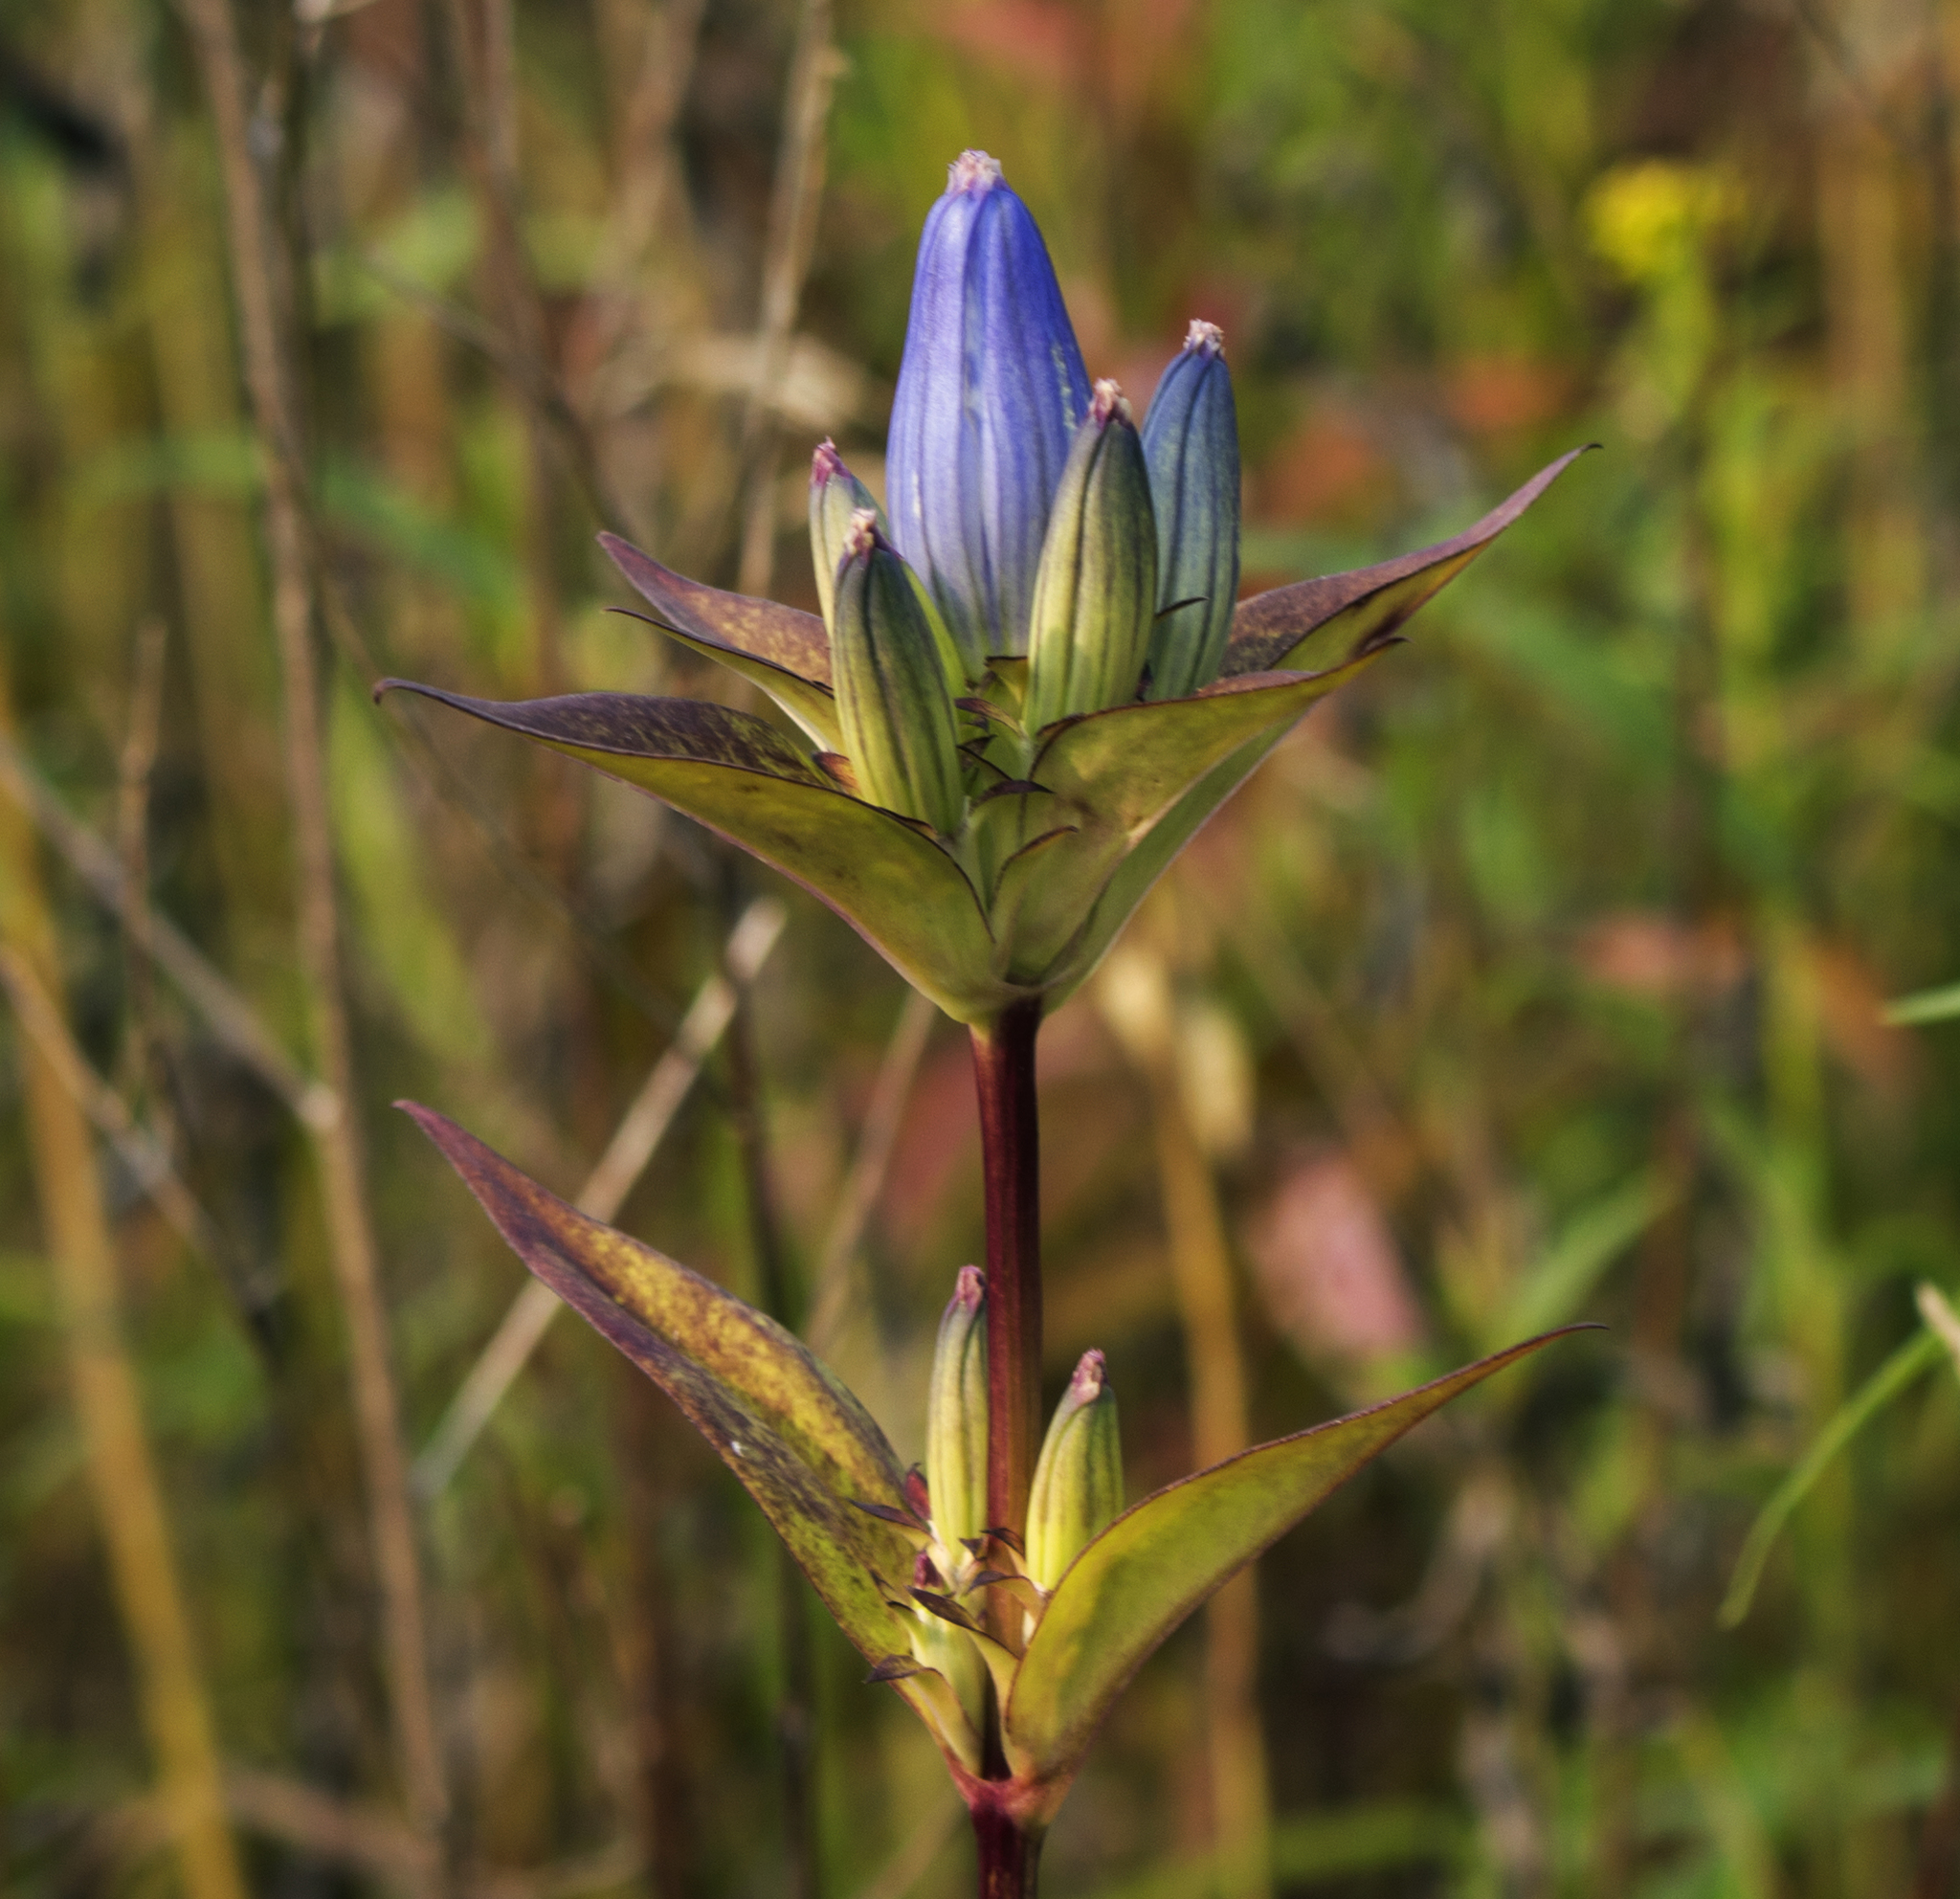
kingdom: Plantae
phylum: Tracheophyta
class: Magnoliopsida
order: Gentianales
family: Gentianaceae
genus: Gentiana
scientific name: Gentiana andrewsii
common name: Bottle gentian
